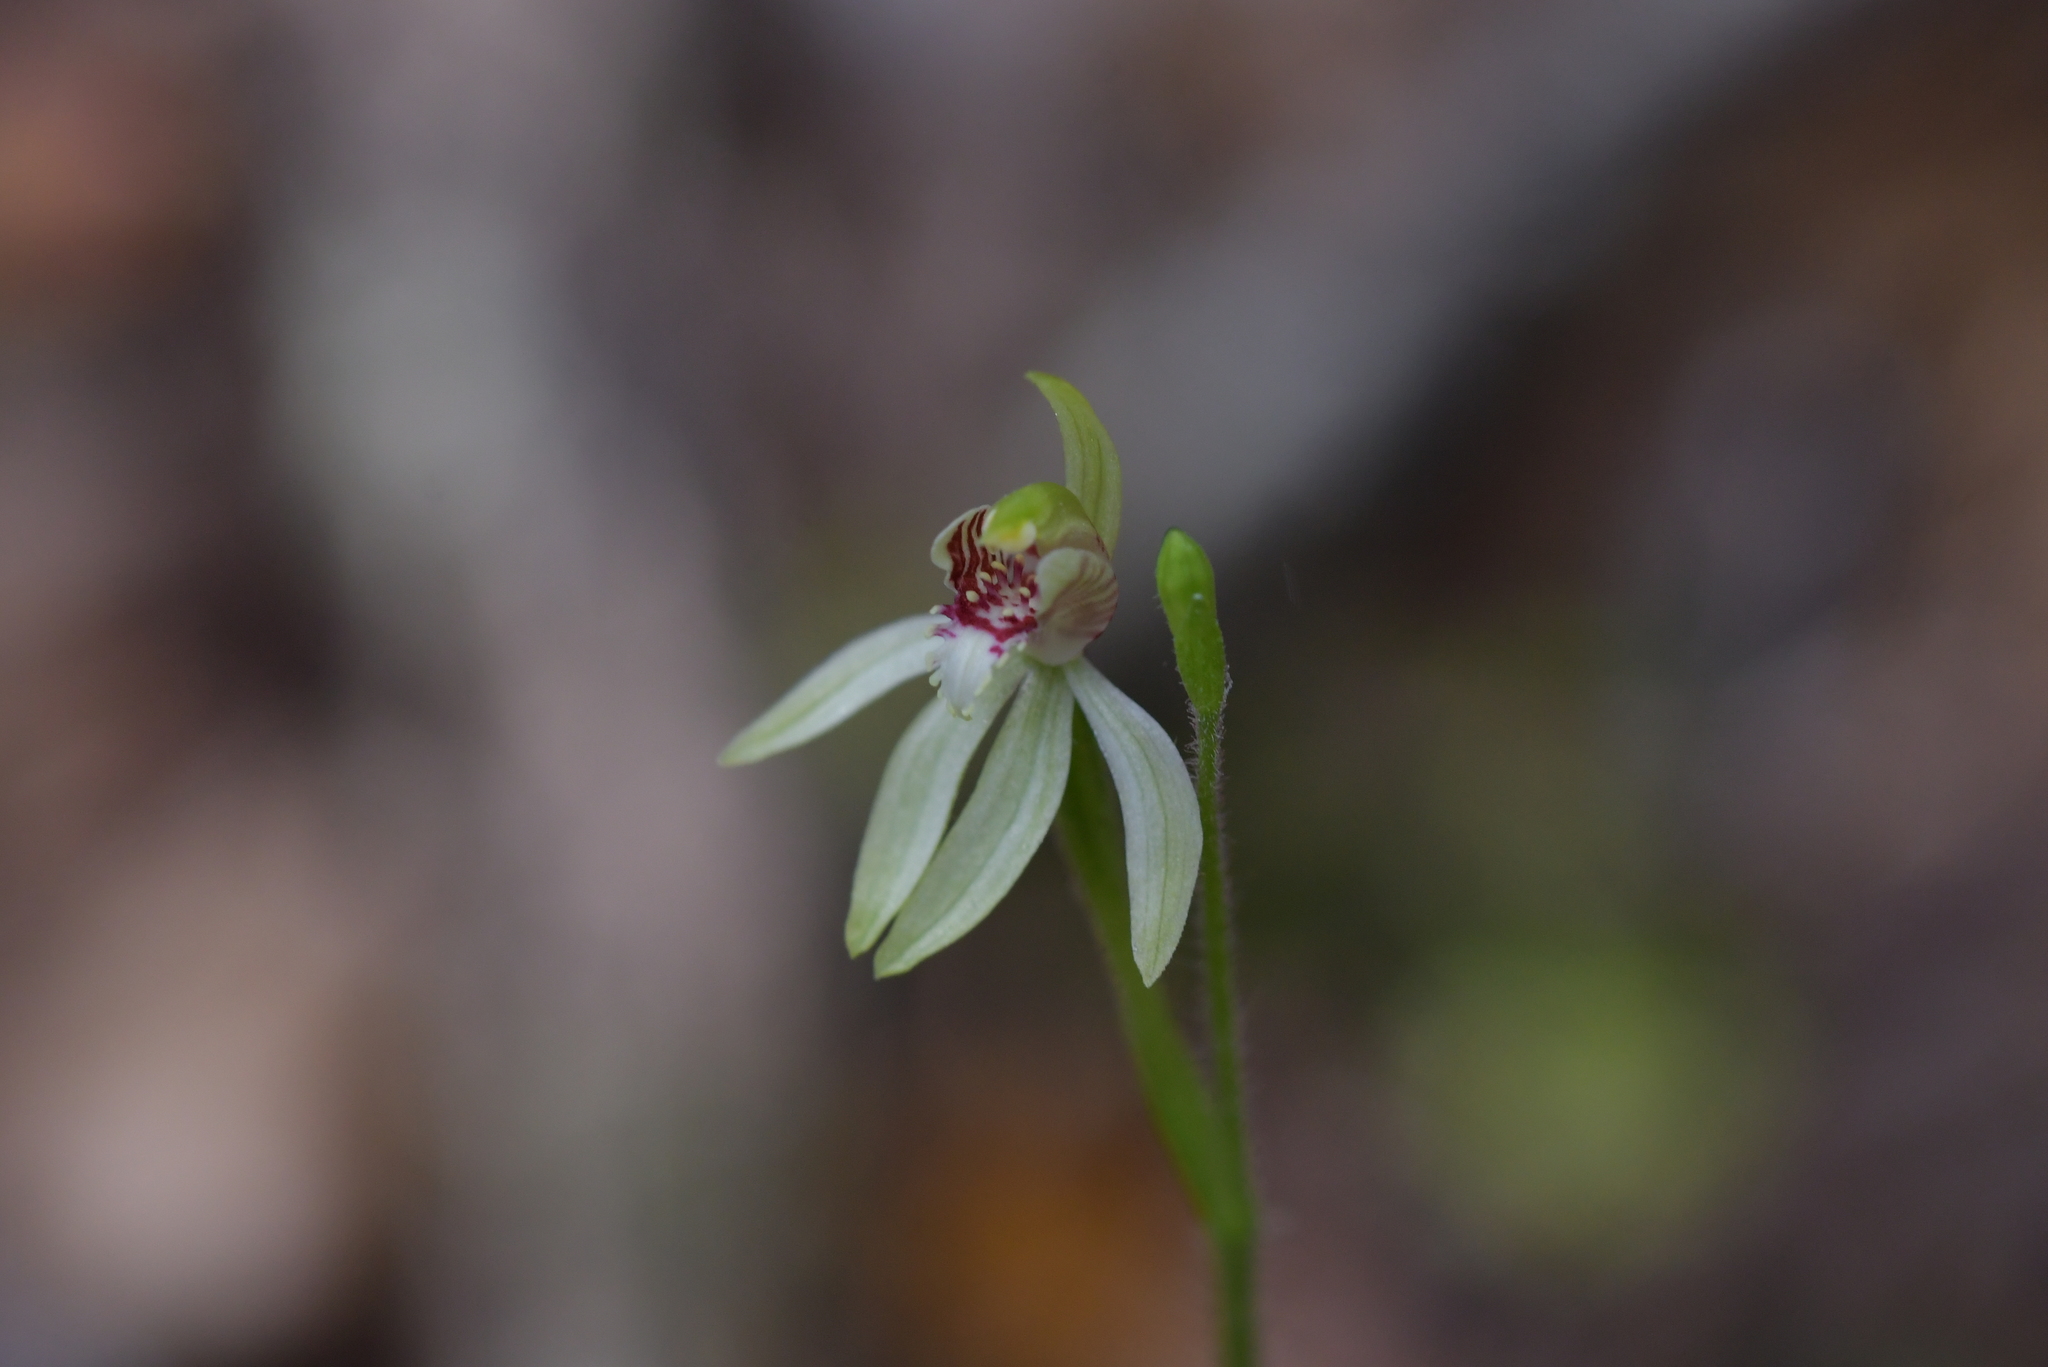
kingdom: Plantae
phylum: Tracheophyta
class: Liliopsida
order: Asparagales
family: Orchidaceae
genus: Caladenia
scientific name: Caladenia chlorostyla
